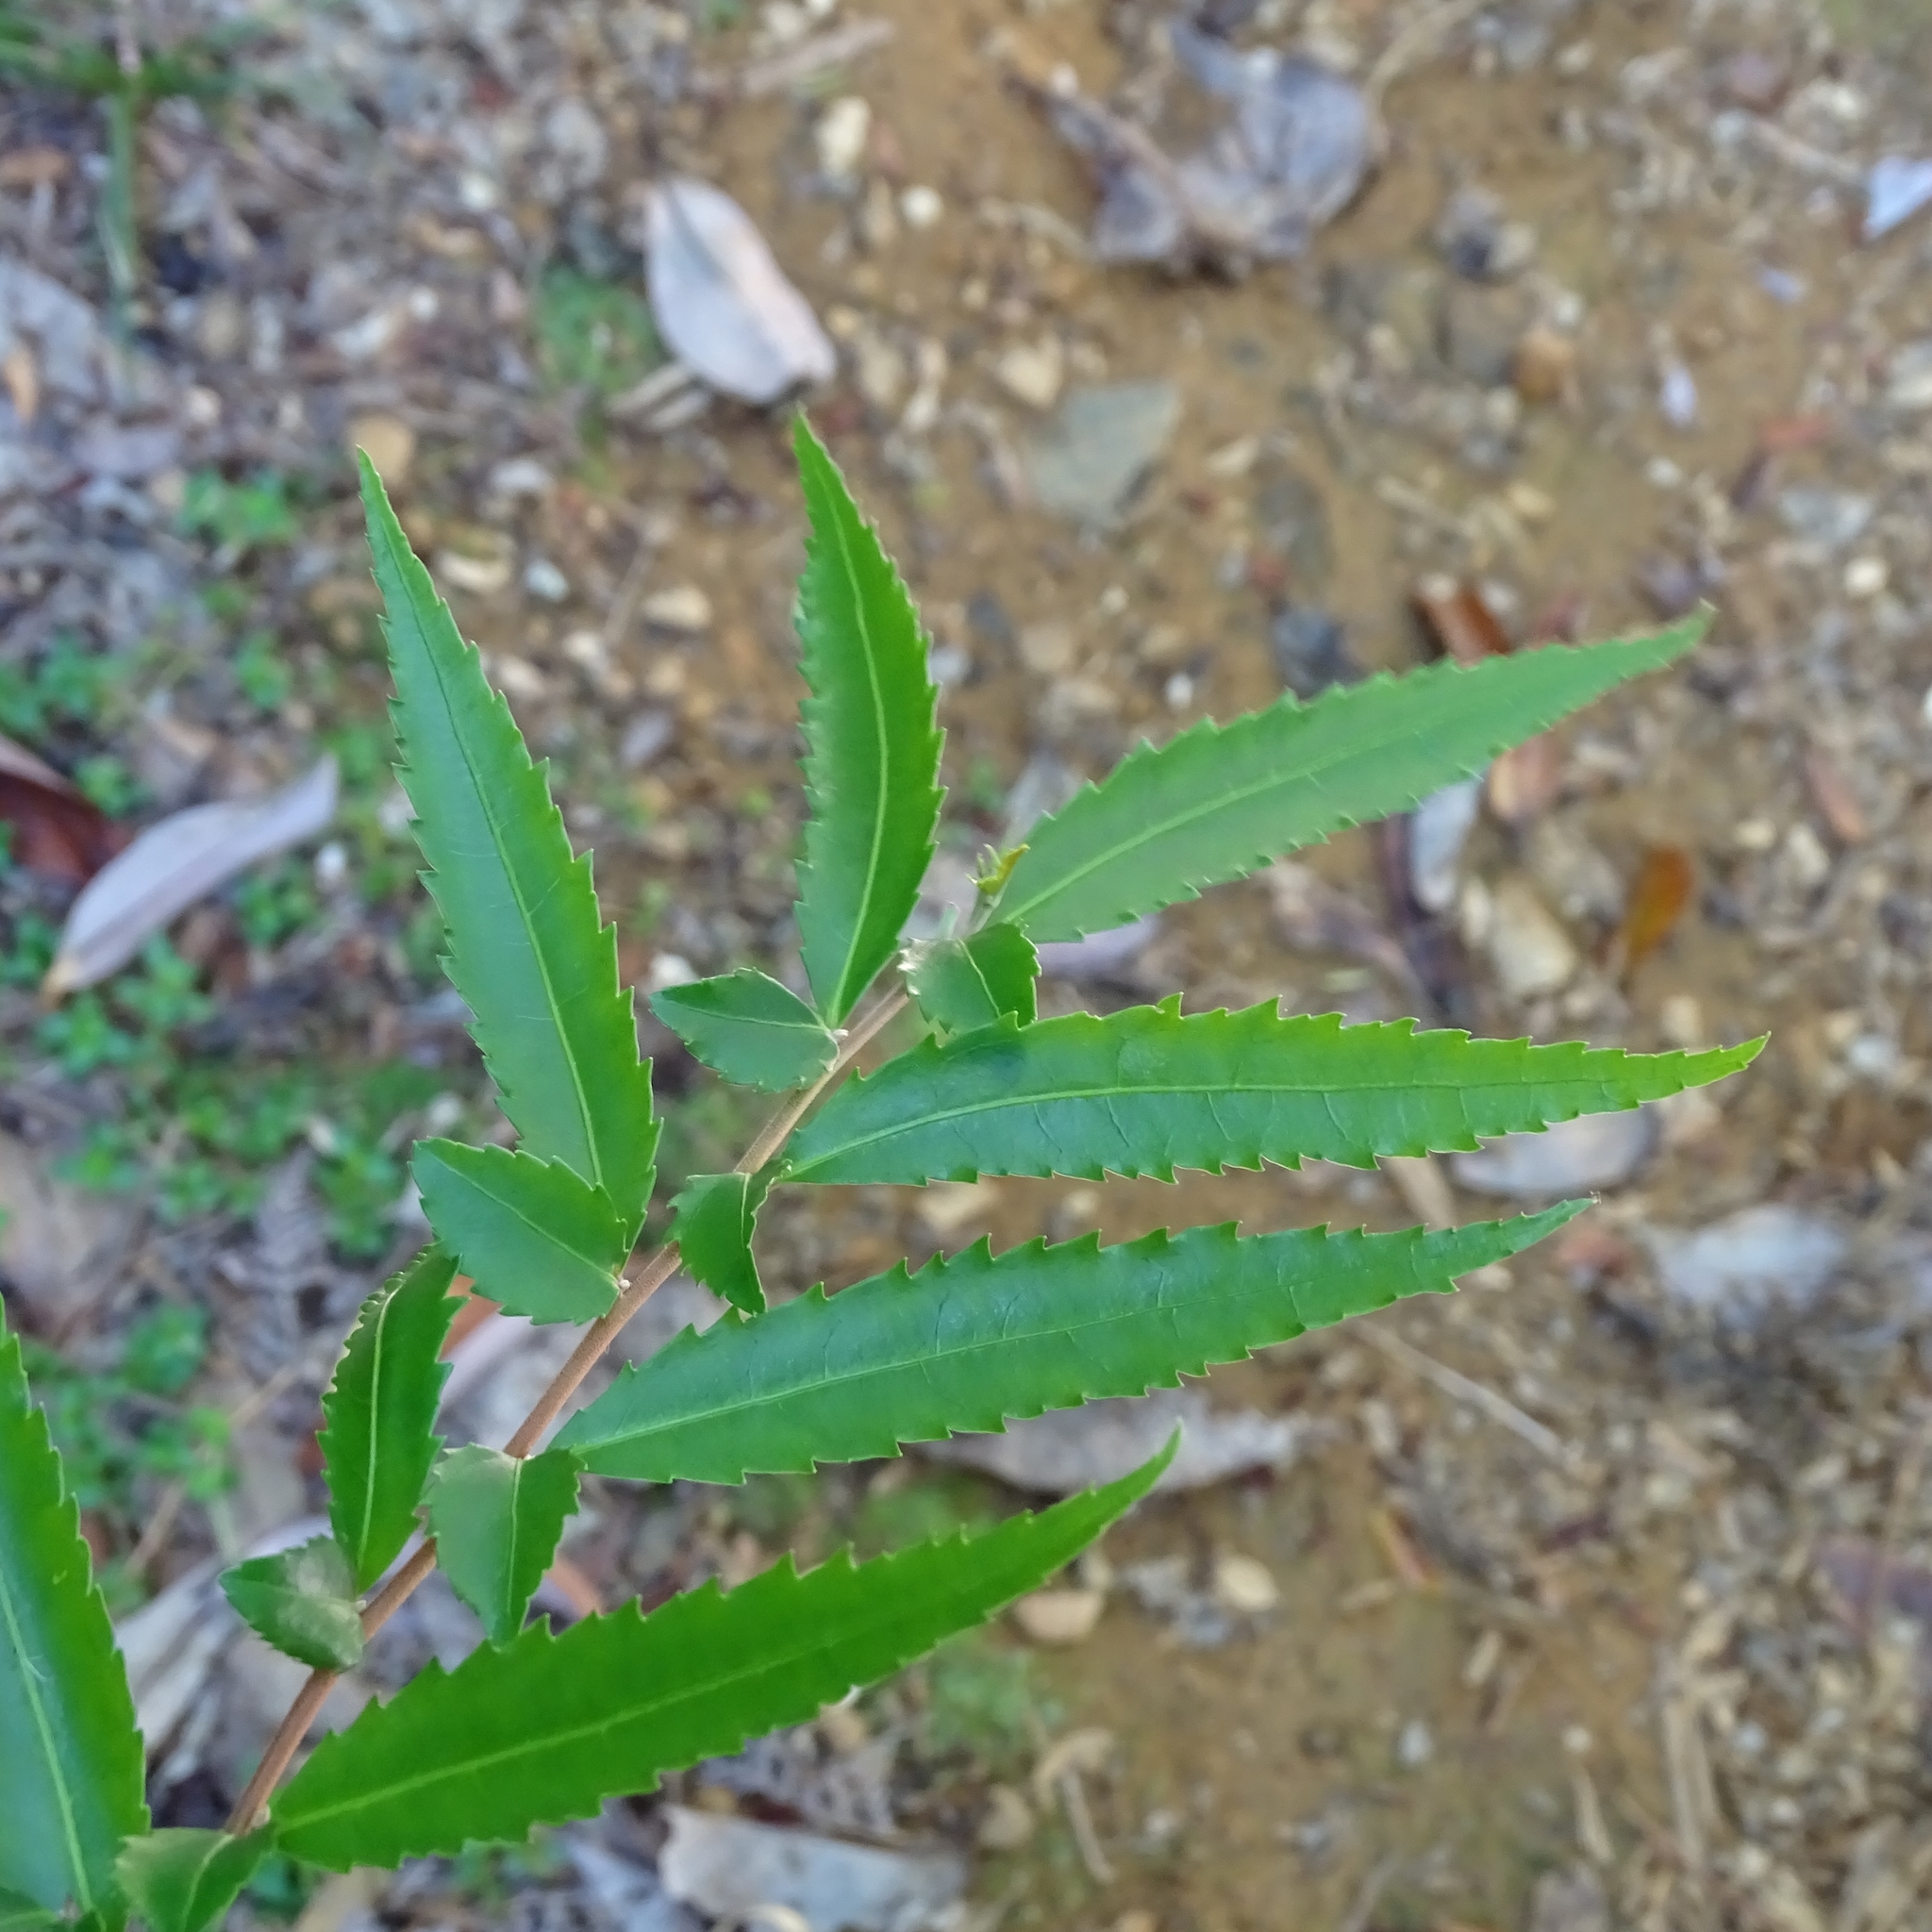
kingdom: Plantae
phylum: Tracheophyta
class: Magnoliopsida
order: Malpighiales
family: Salicaceae
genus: Azara
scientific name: Azara lanceolata
